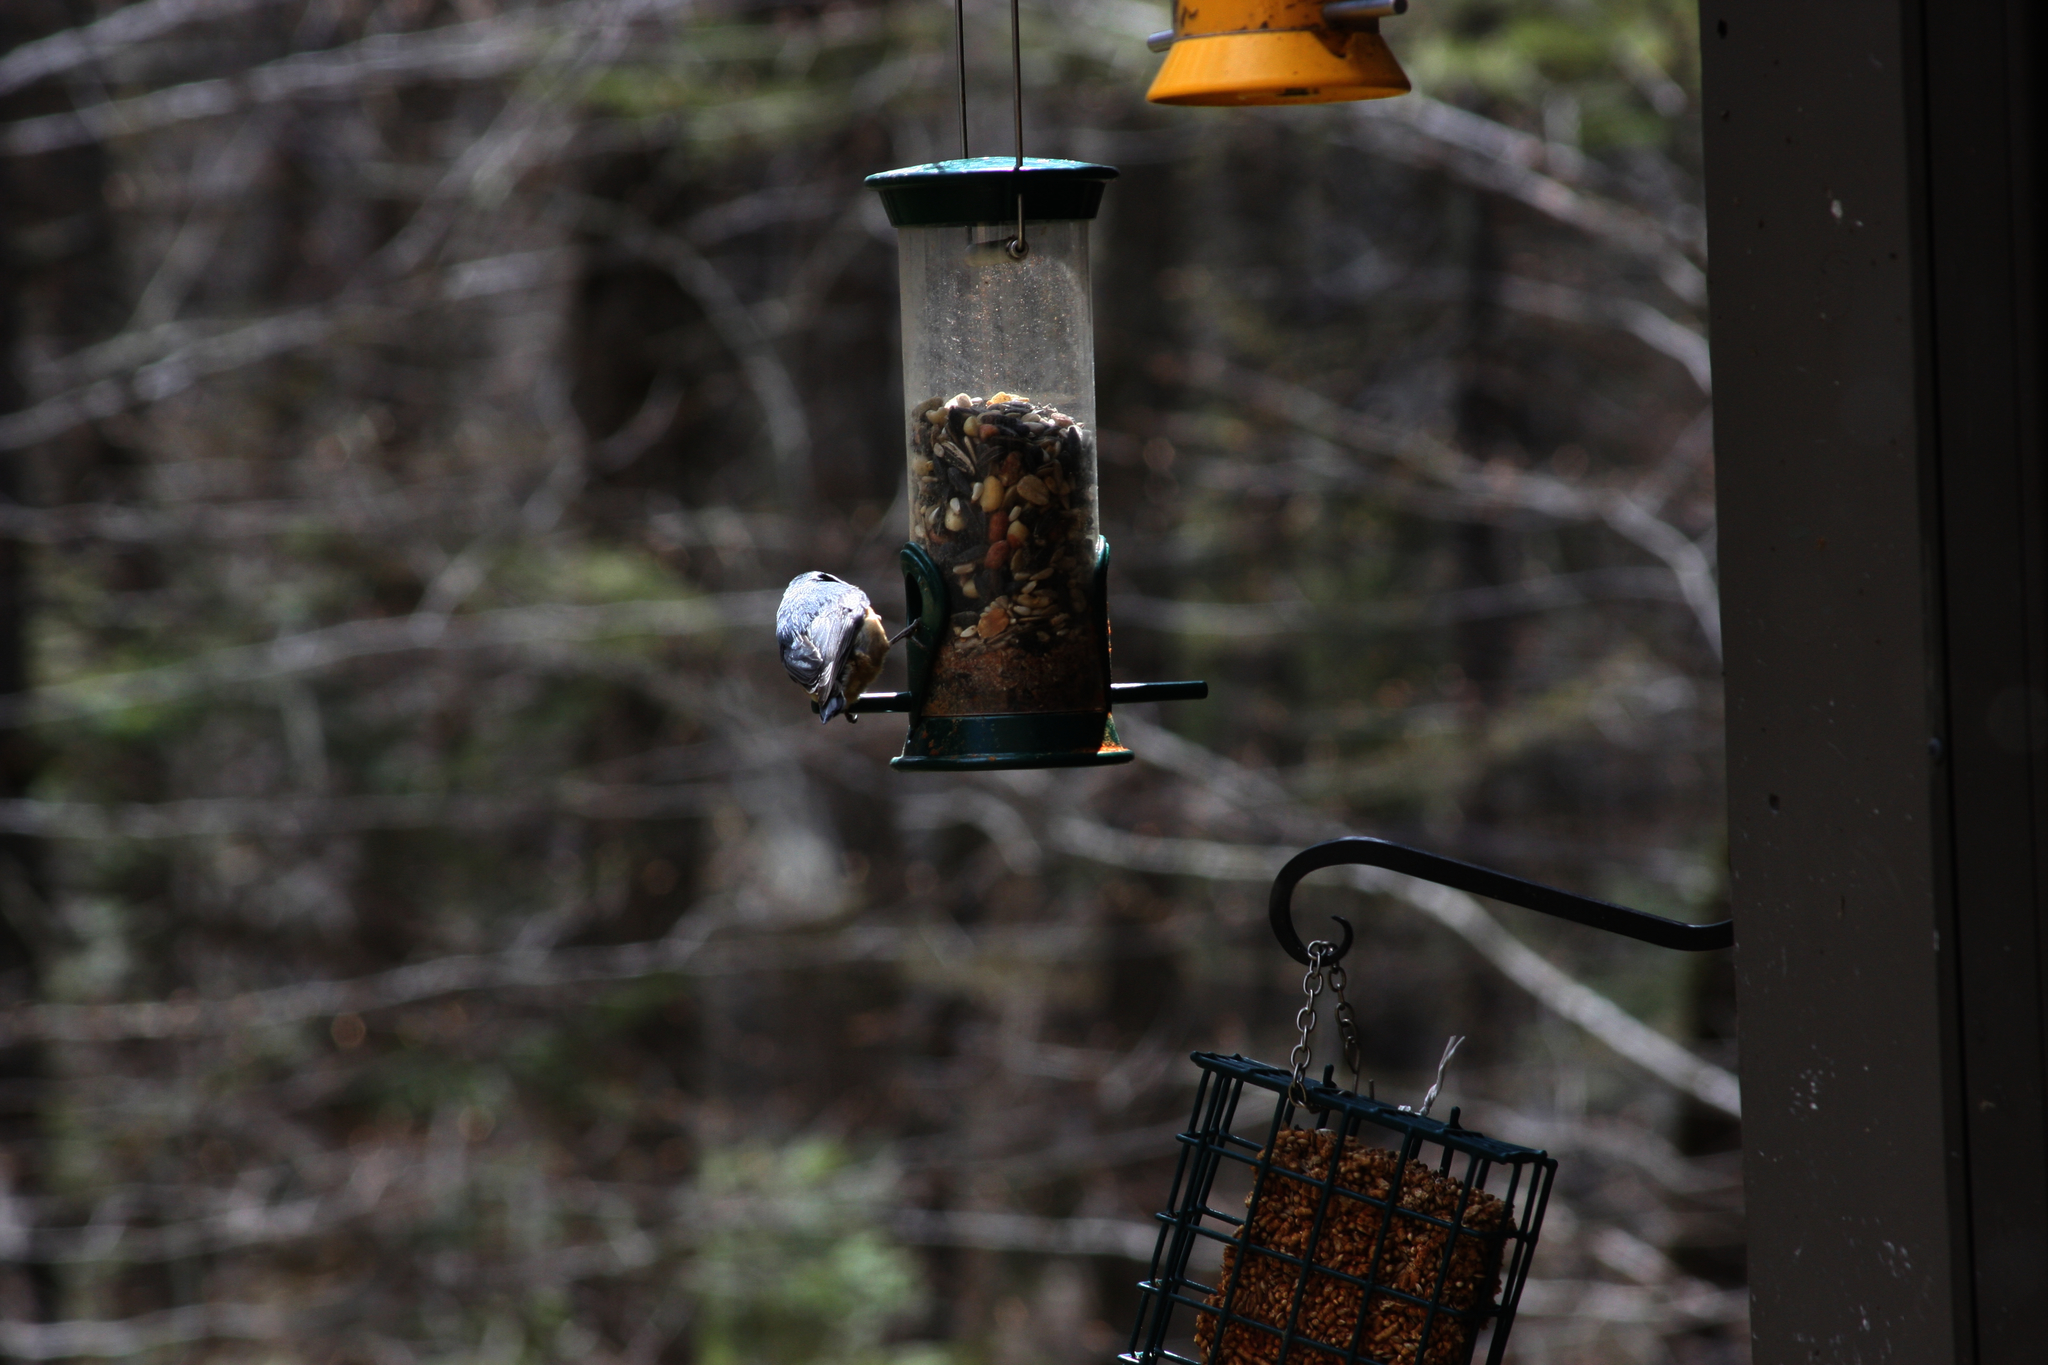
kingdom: Animalia
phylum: Chordata
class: Aves
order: Passeriformes
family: Sittidae
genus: Sitta
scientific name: Sitta canadensis
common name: Red-breasted nuthatch
